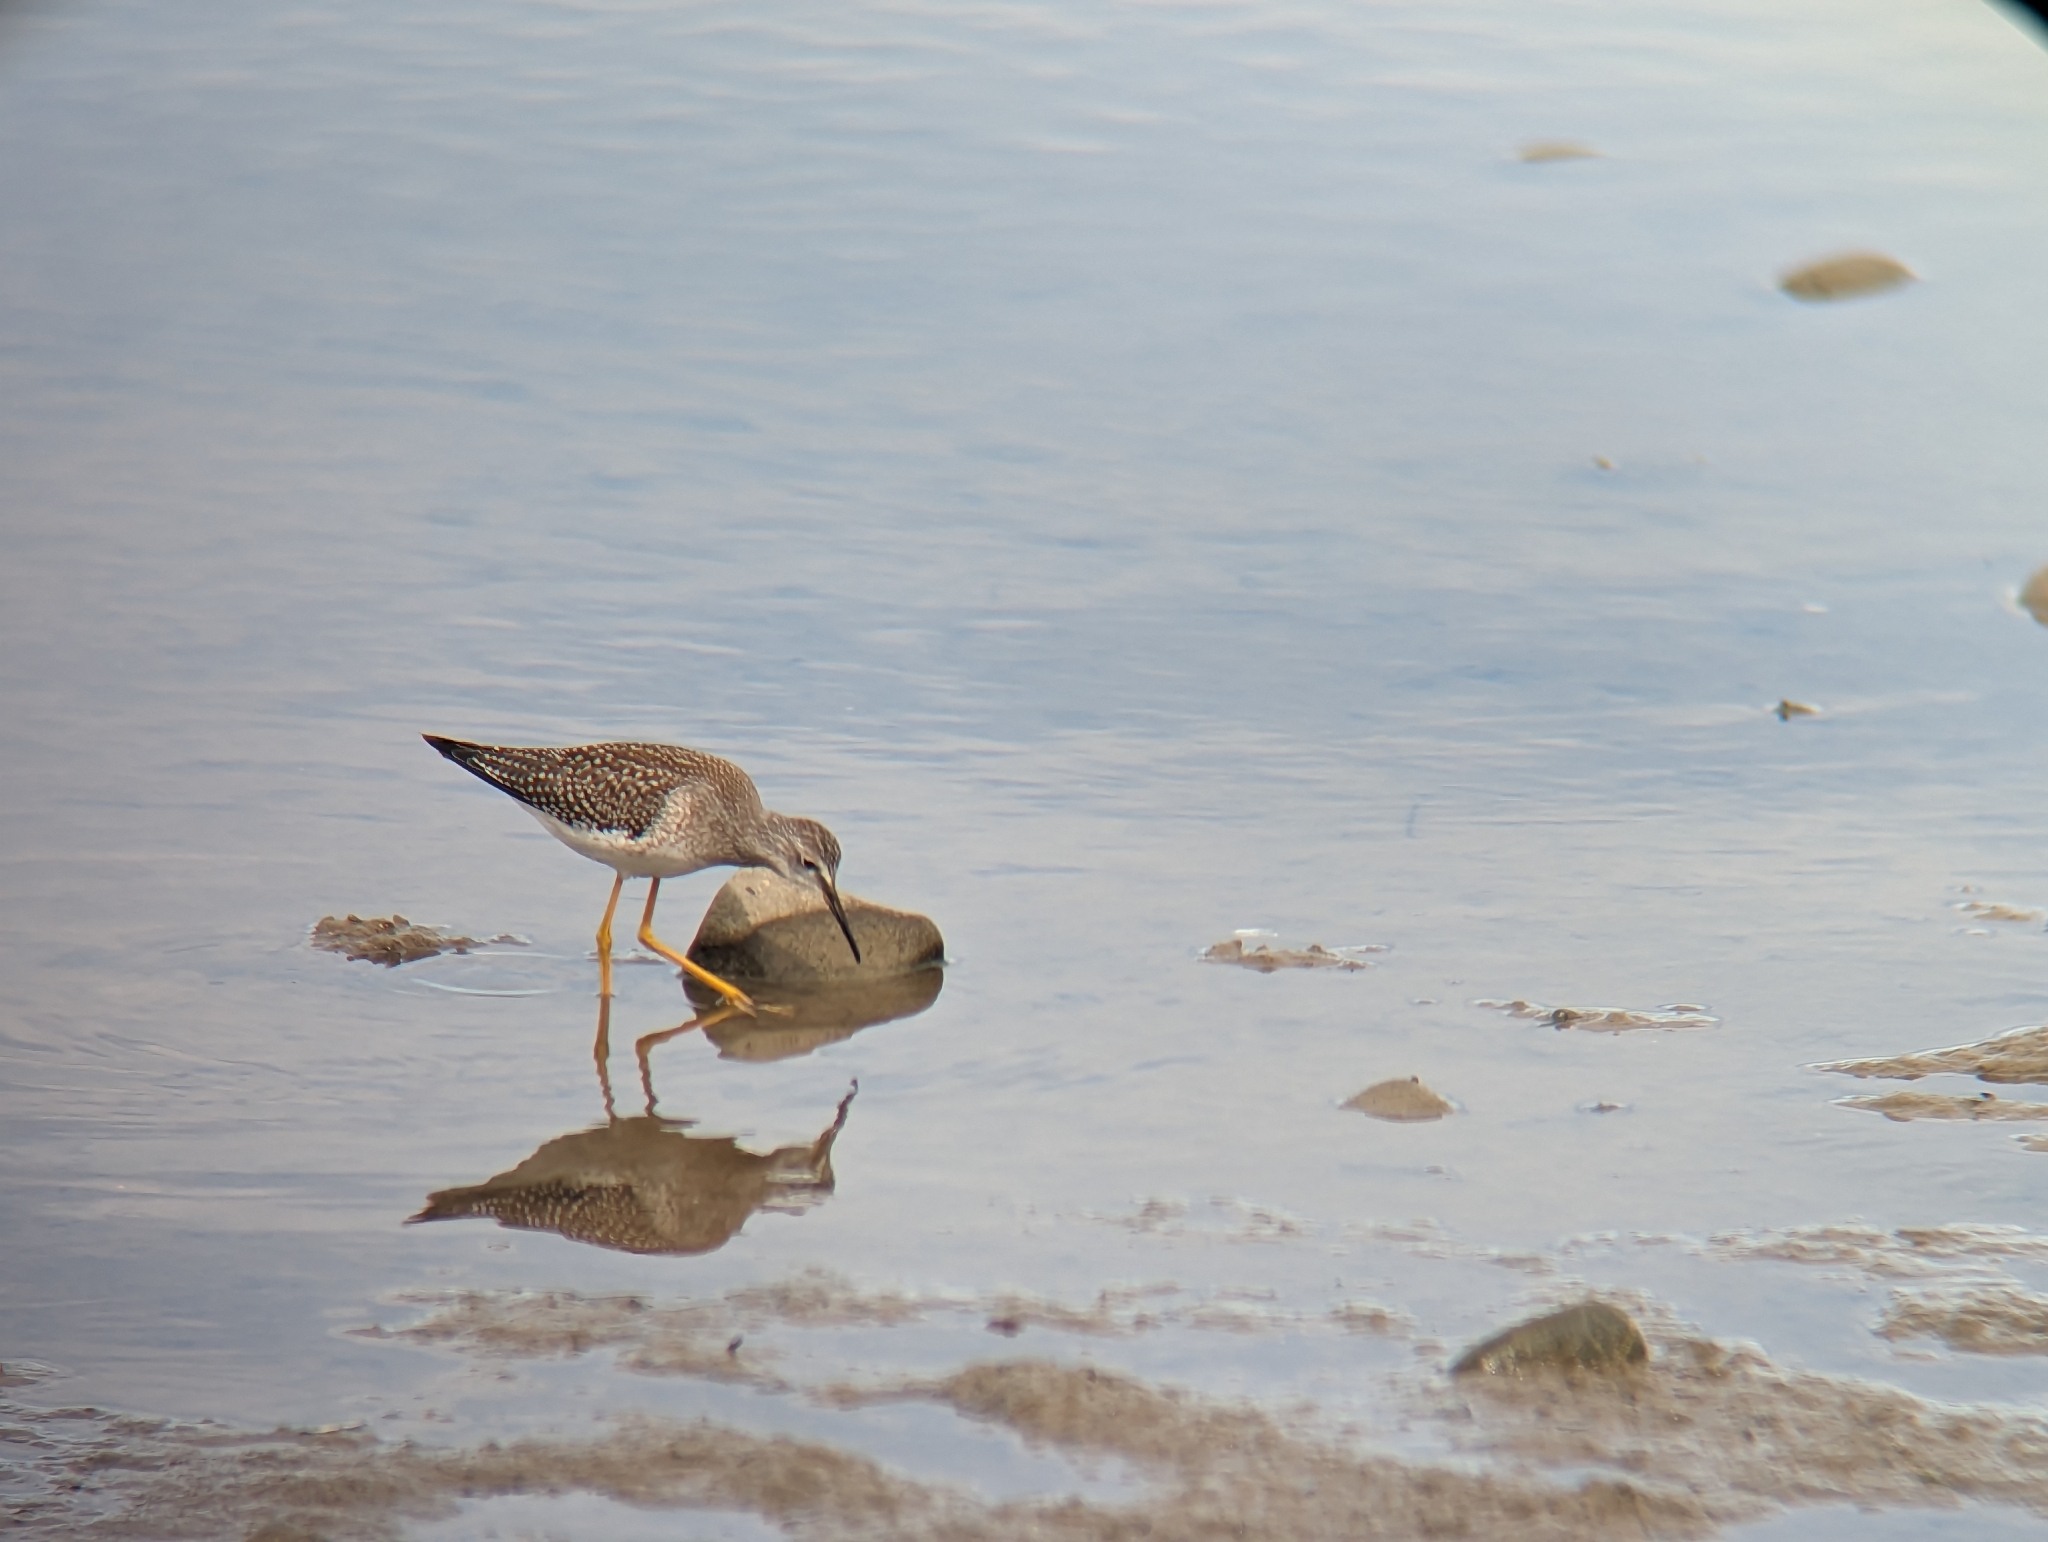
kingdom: Animalia
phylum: Chordata
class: Aves
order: Charadriiformes
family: Scolopacidae
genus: Tringa
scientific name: Tringa flavipes
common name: Lesser yellowlegs
